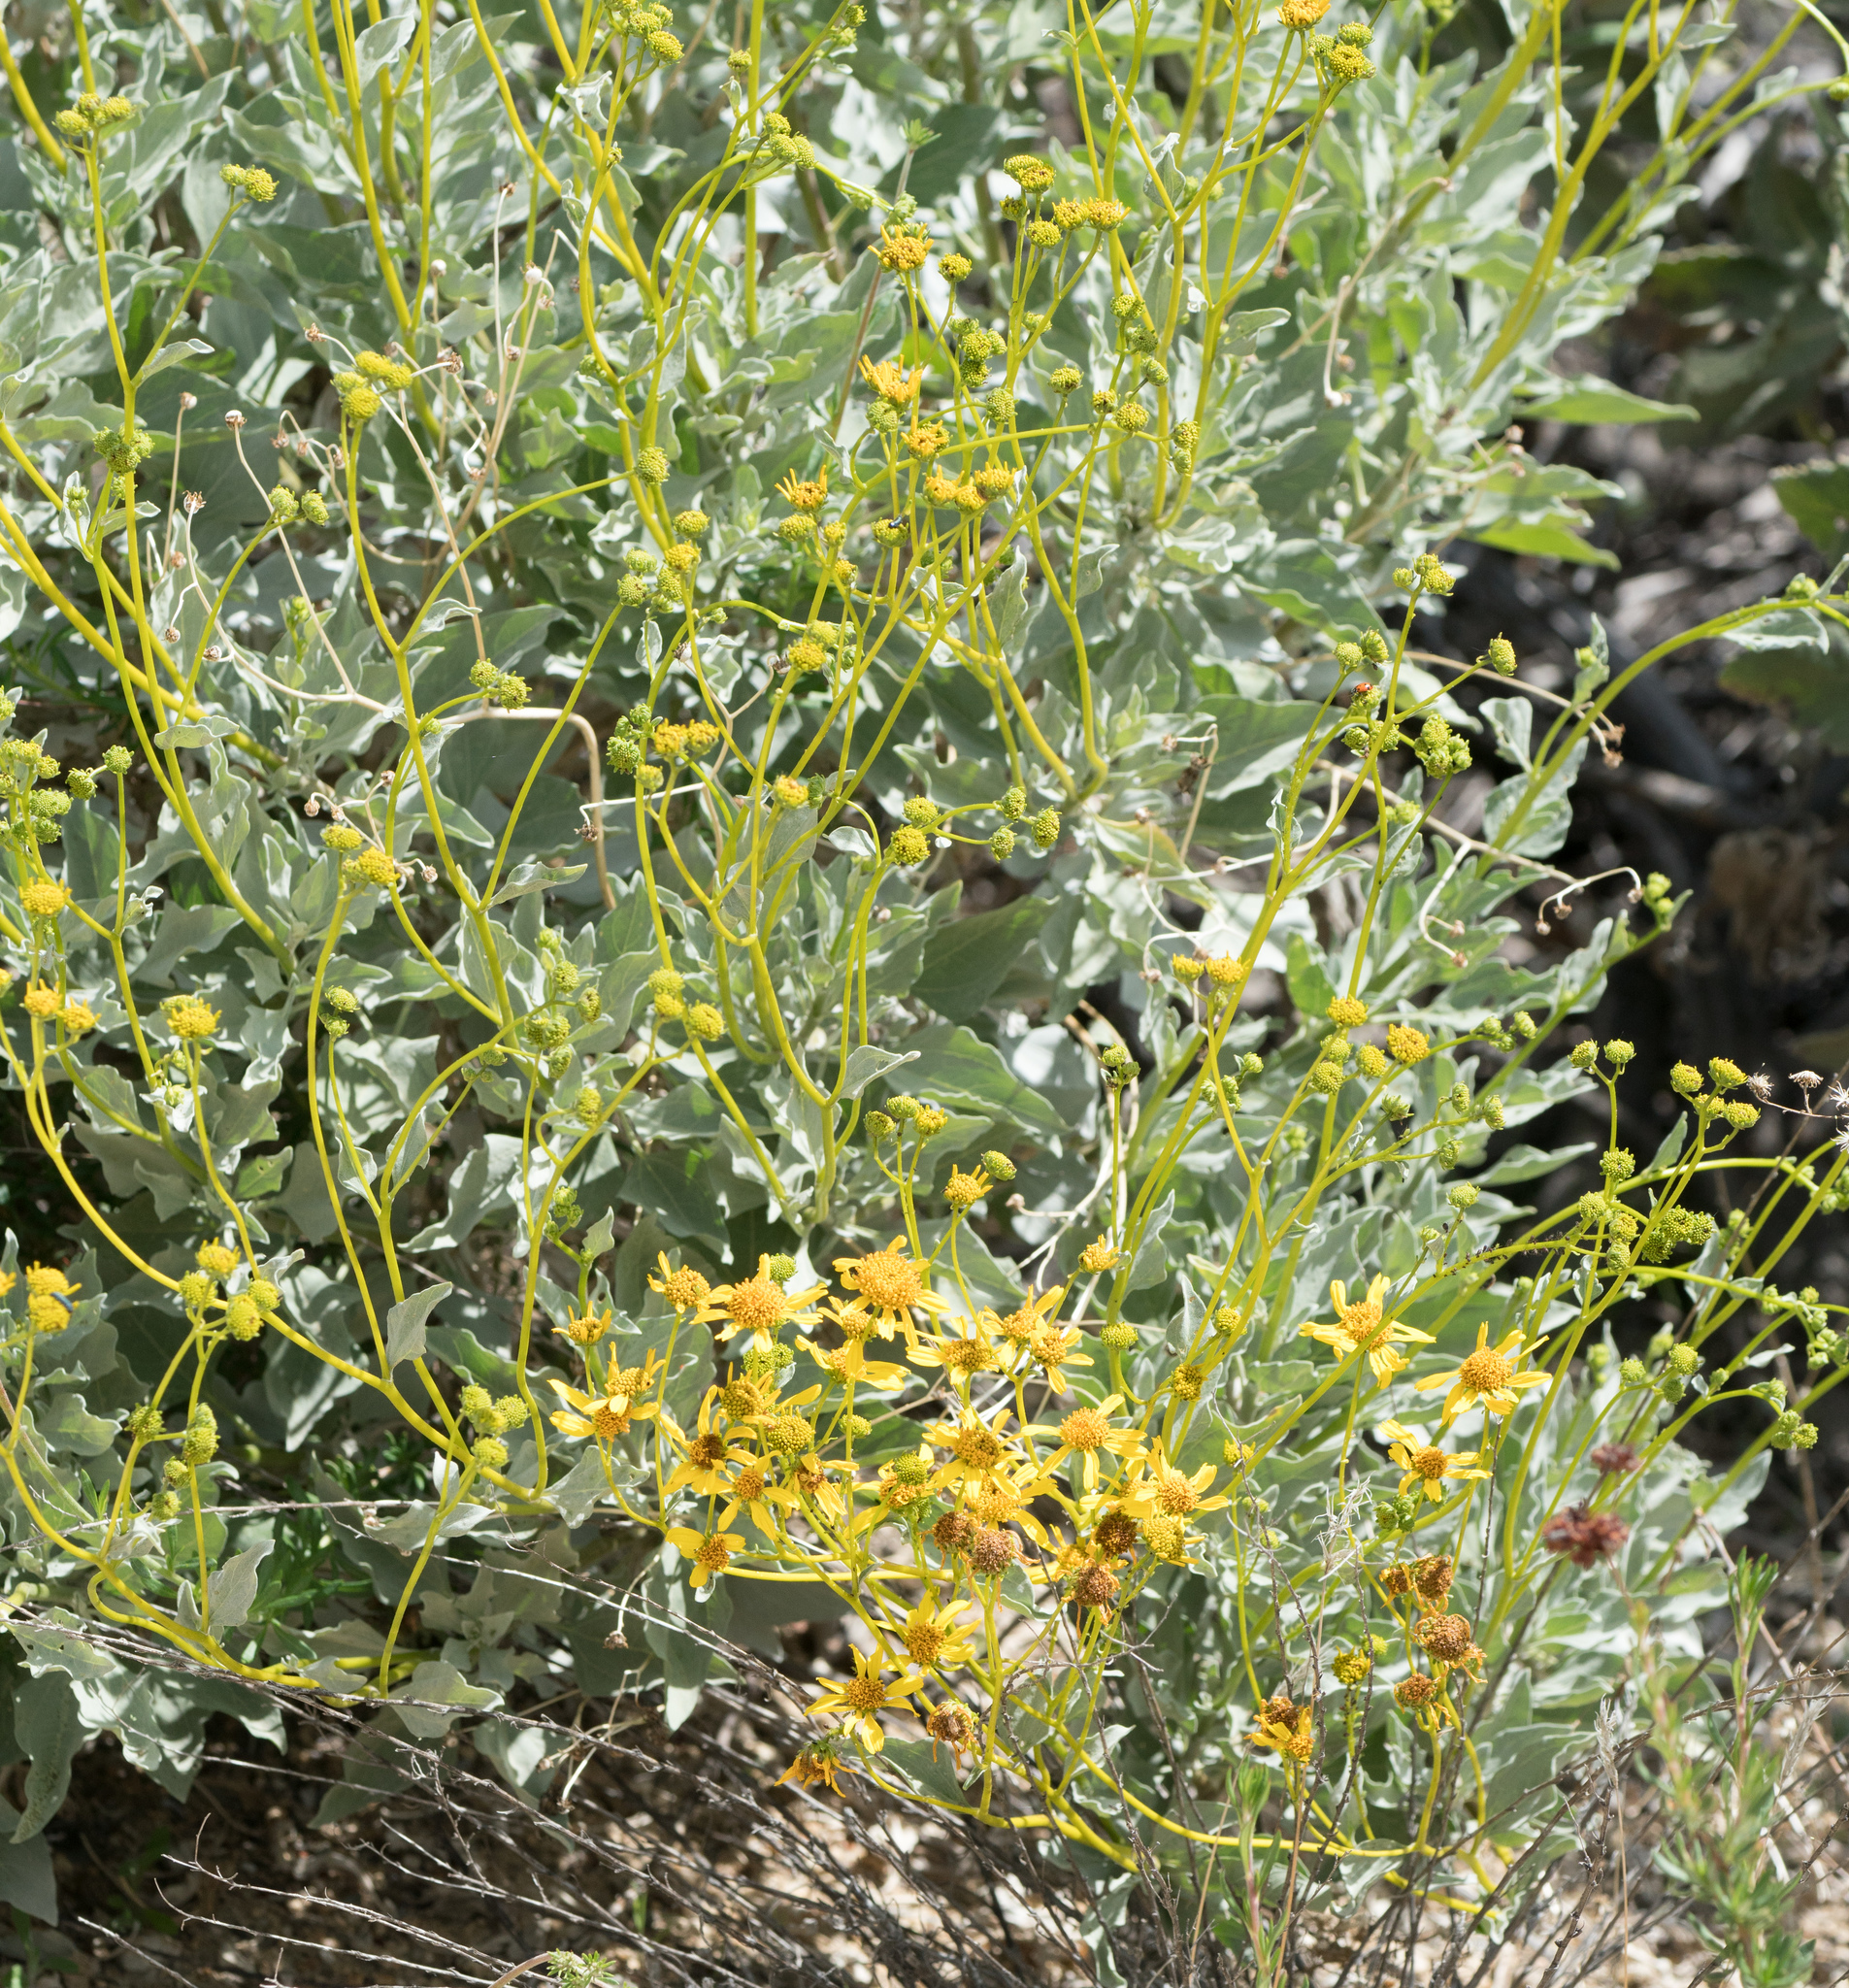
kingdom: Plantae
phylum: Tracheophyta
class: Magnoliopsida
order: Asterales
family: Asteraceae
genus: Encelia
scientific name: Encelia farinosa
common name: Brittlebush
